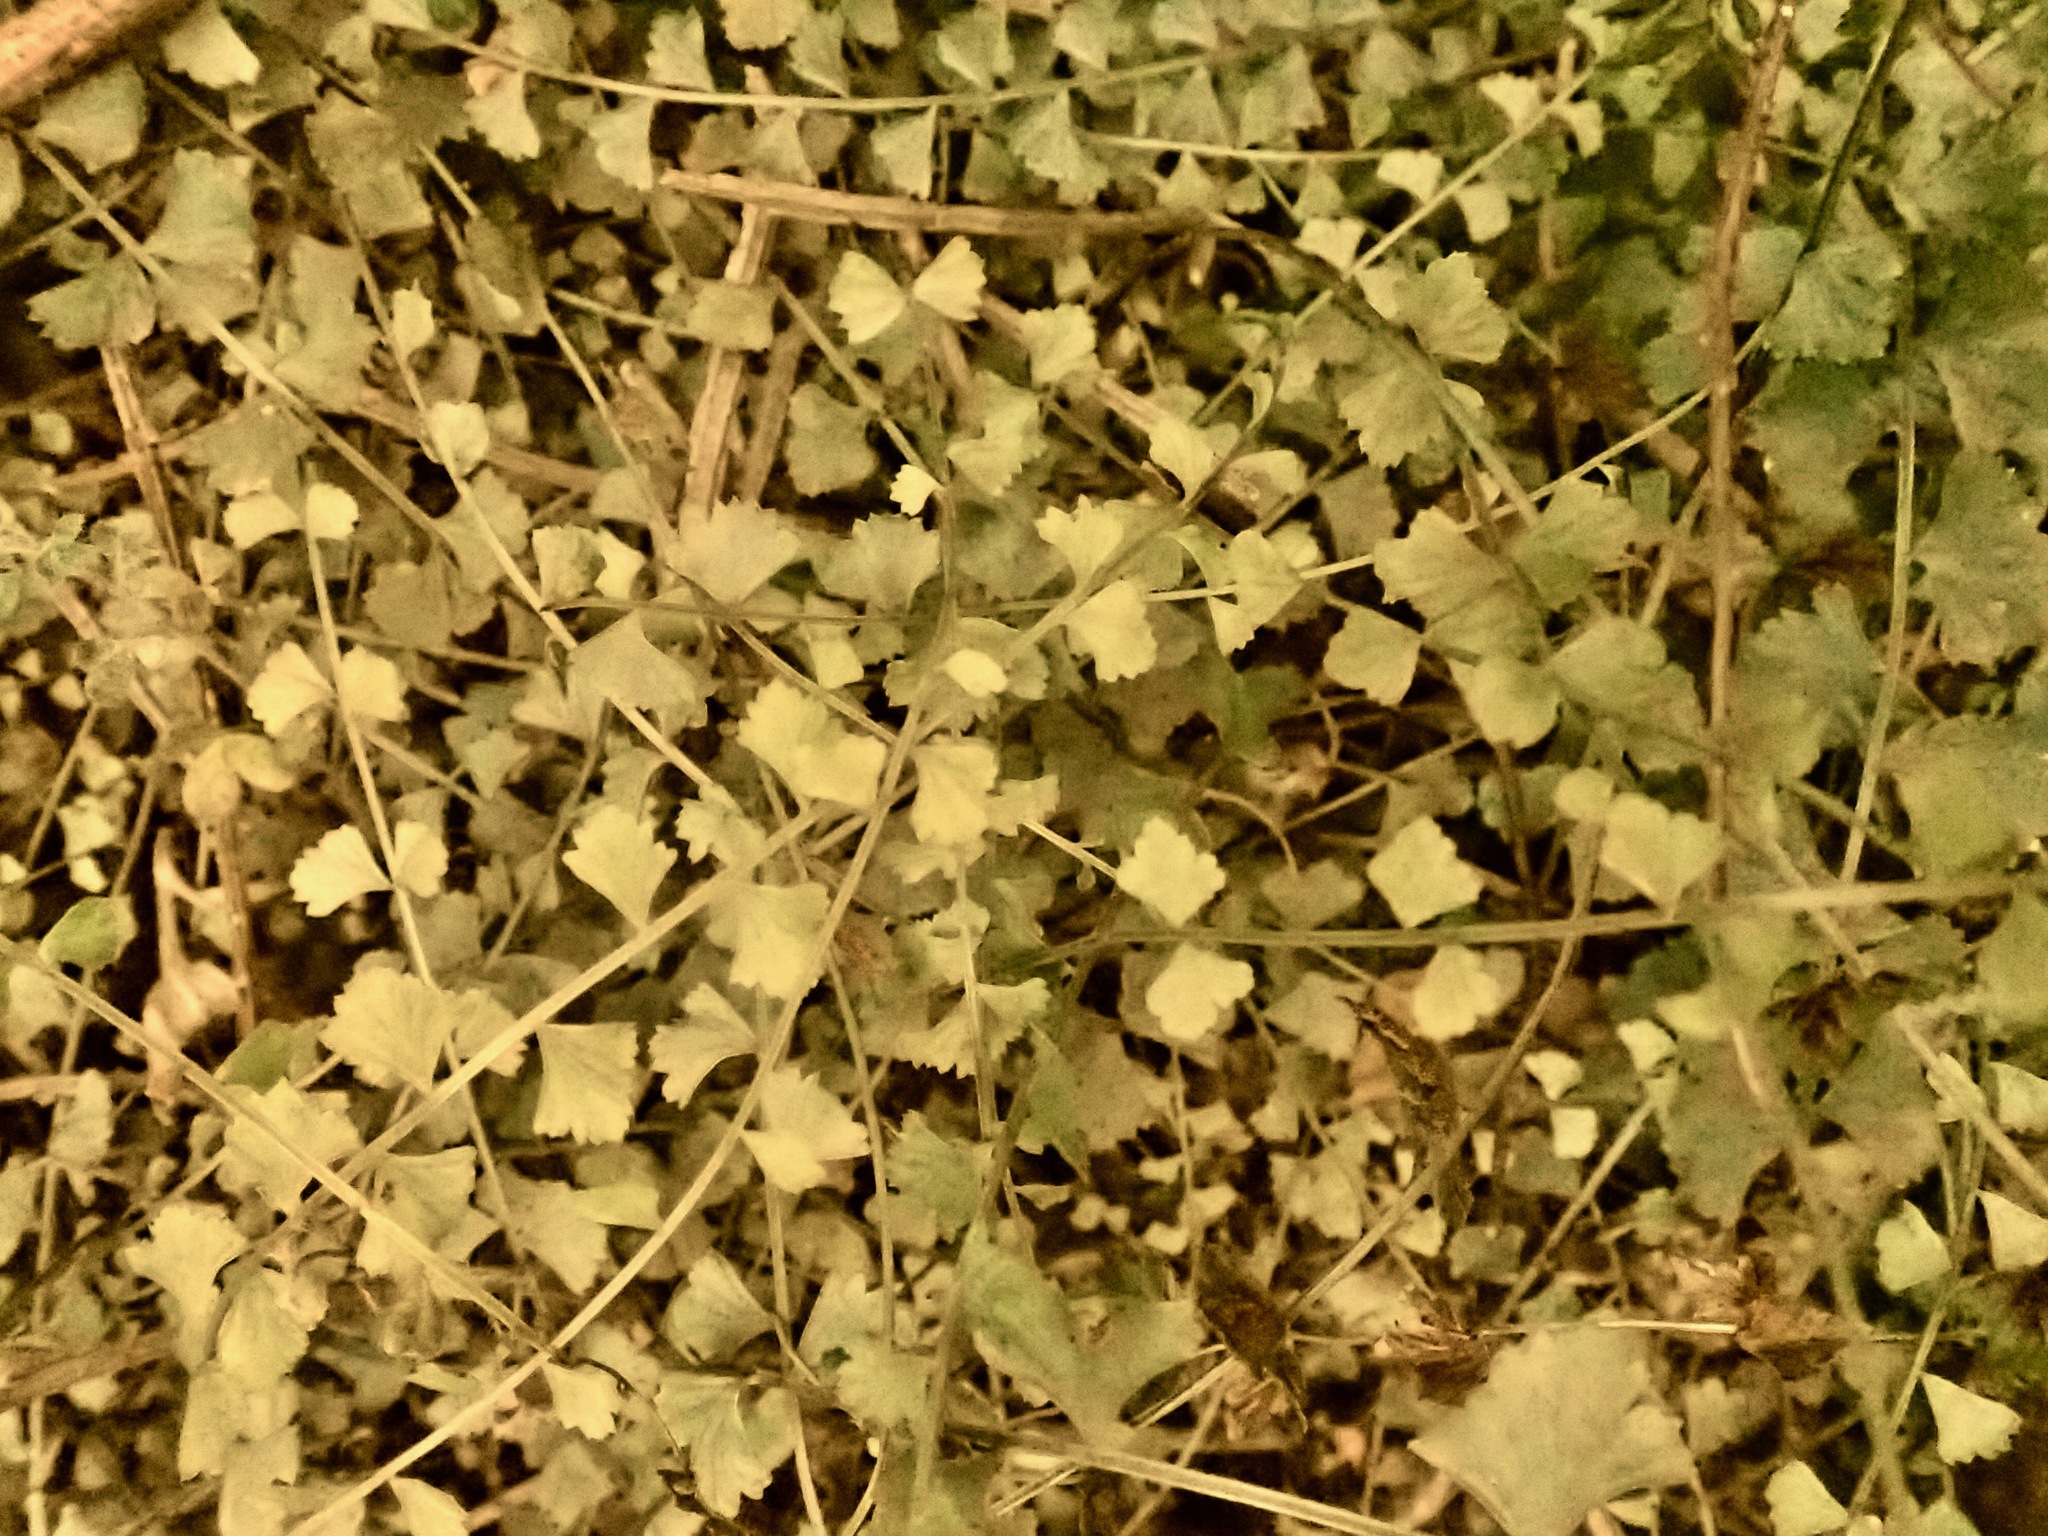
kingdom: Plantae
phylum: Tracheophyta
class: Polypodiopsida
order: Polypodiales
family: Aspleniaceae
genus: Asplenium
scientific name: Asplenium flabellifolium
